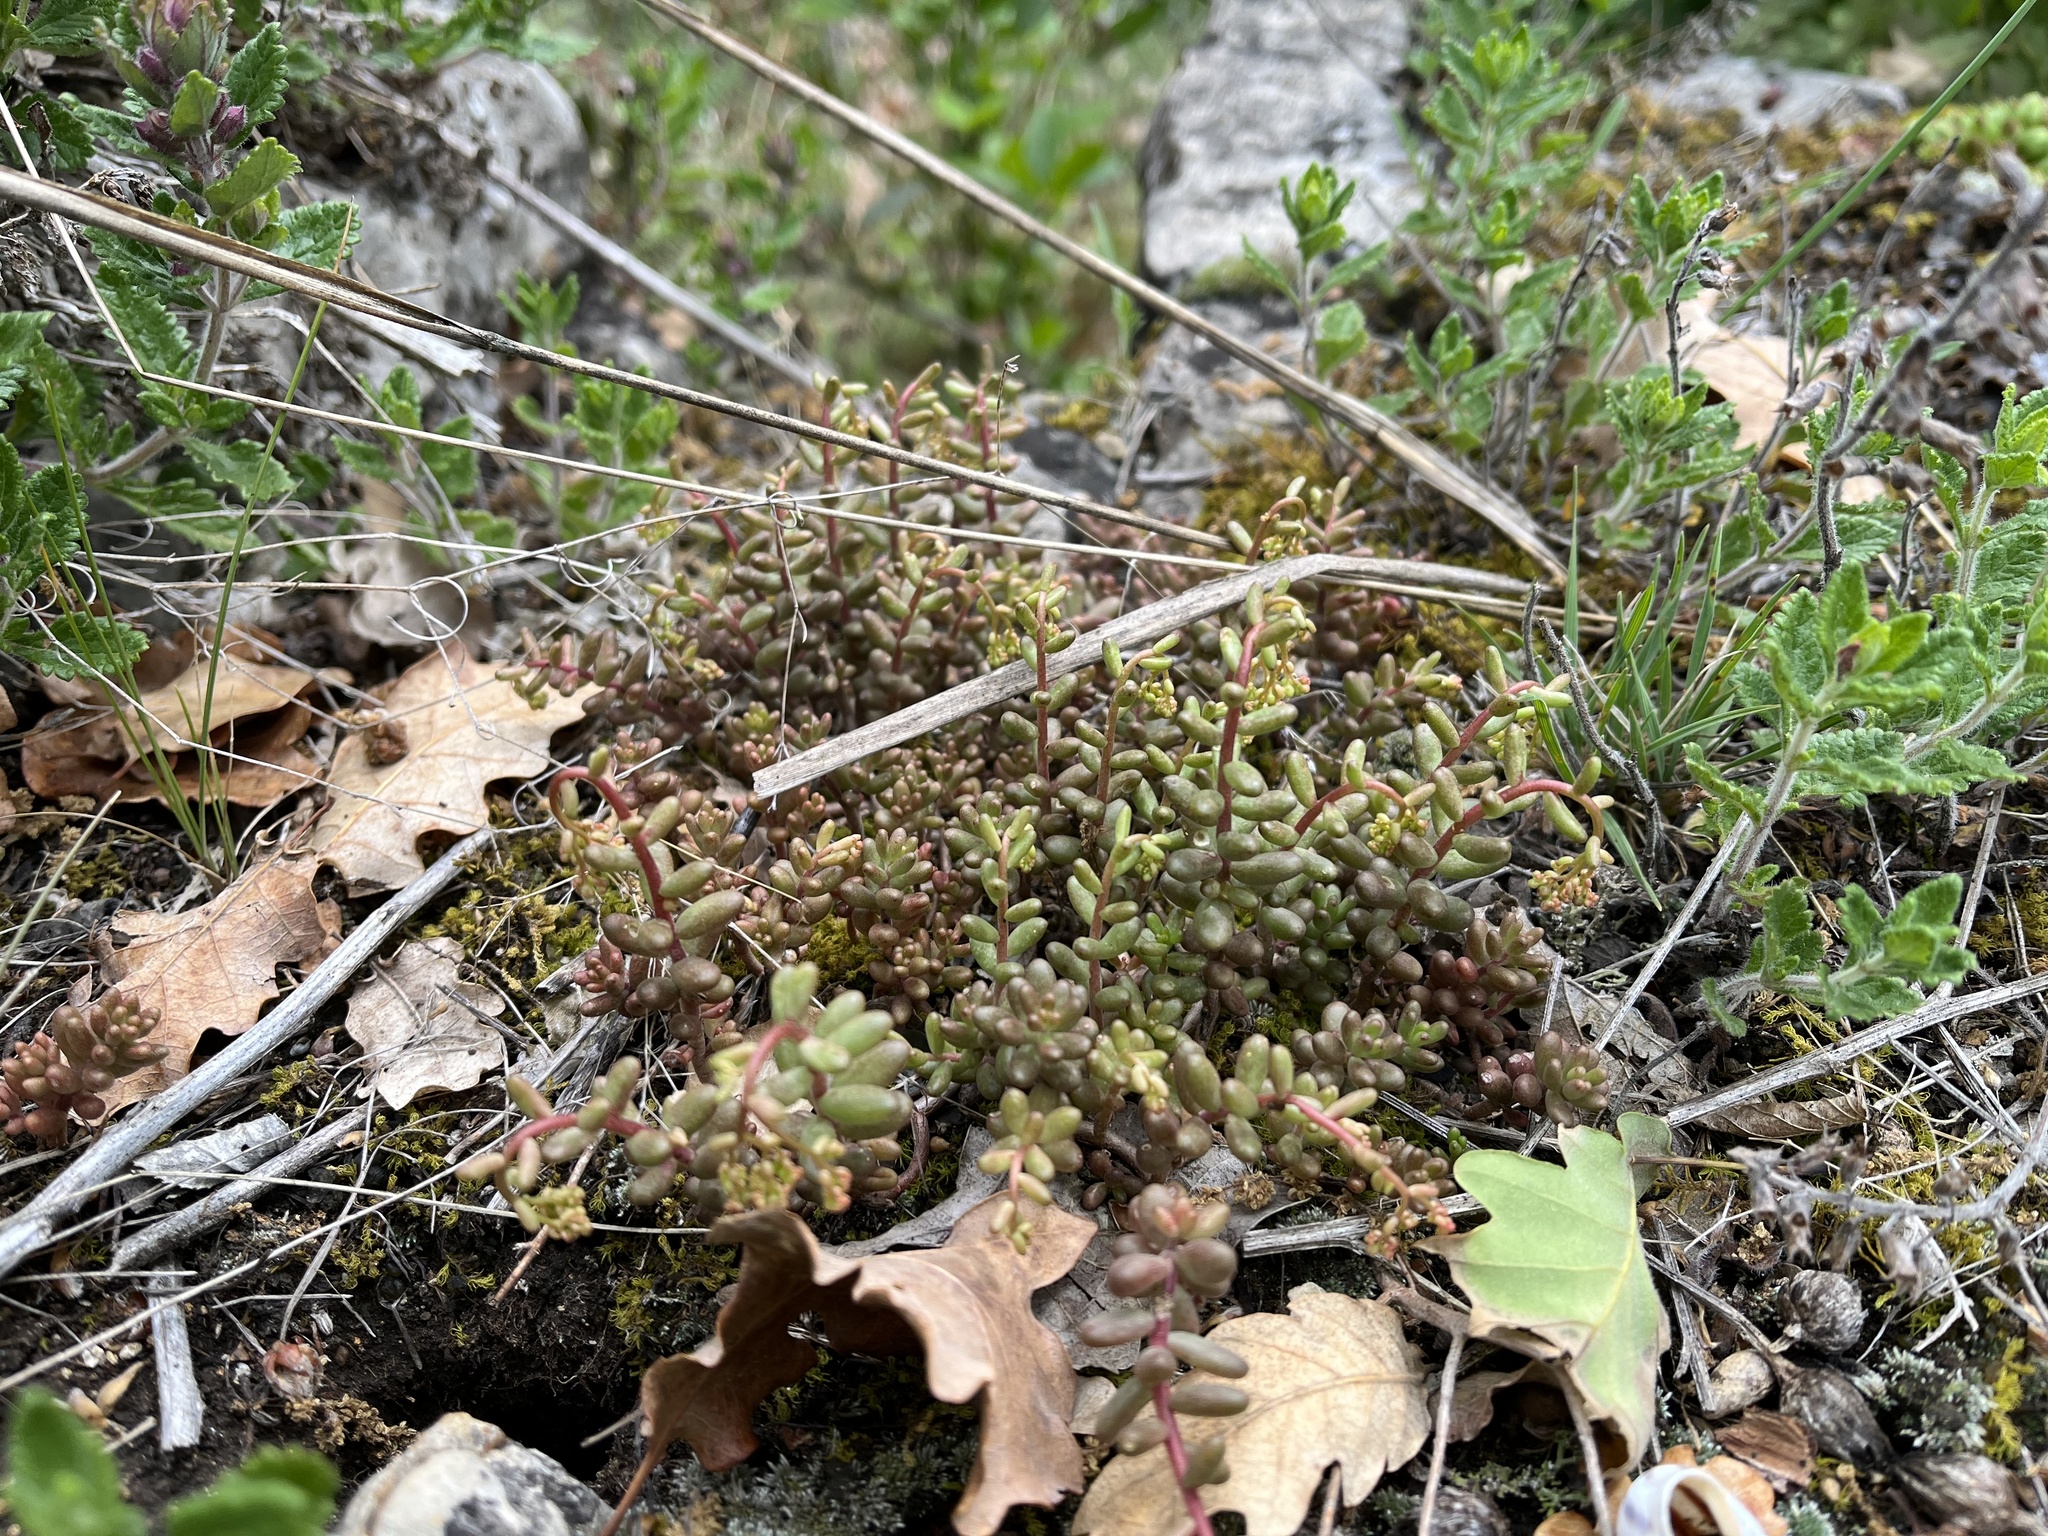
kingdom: Plantae
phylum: Tracheophyta
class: Magnoliopsida
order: Saxifragales
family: Crassulaceae
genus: Sedum
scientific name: Sedum album
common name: White stonecrop
